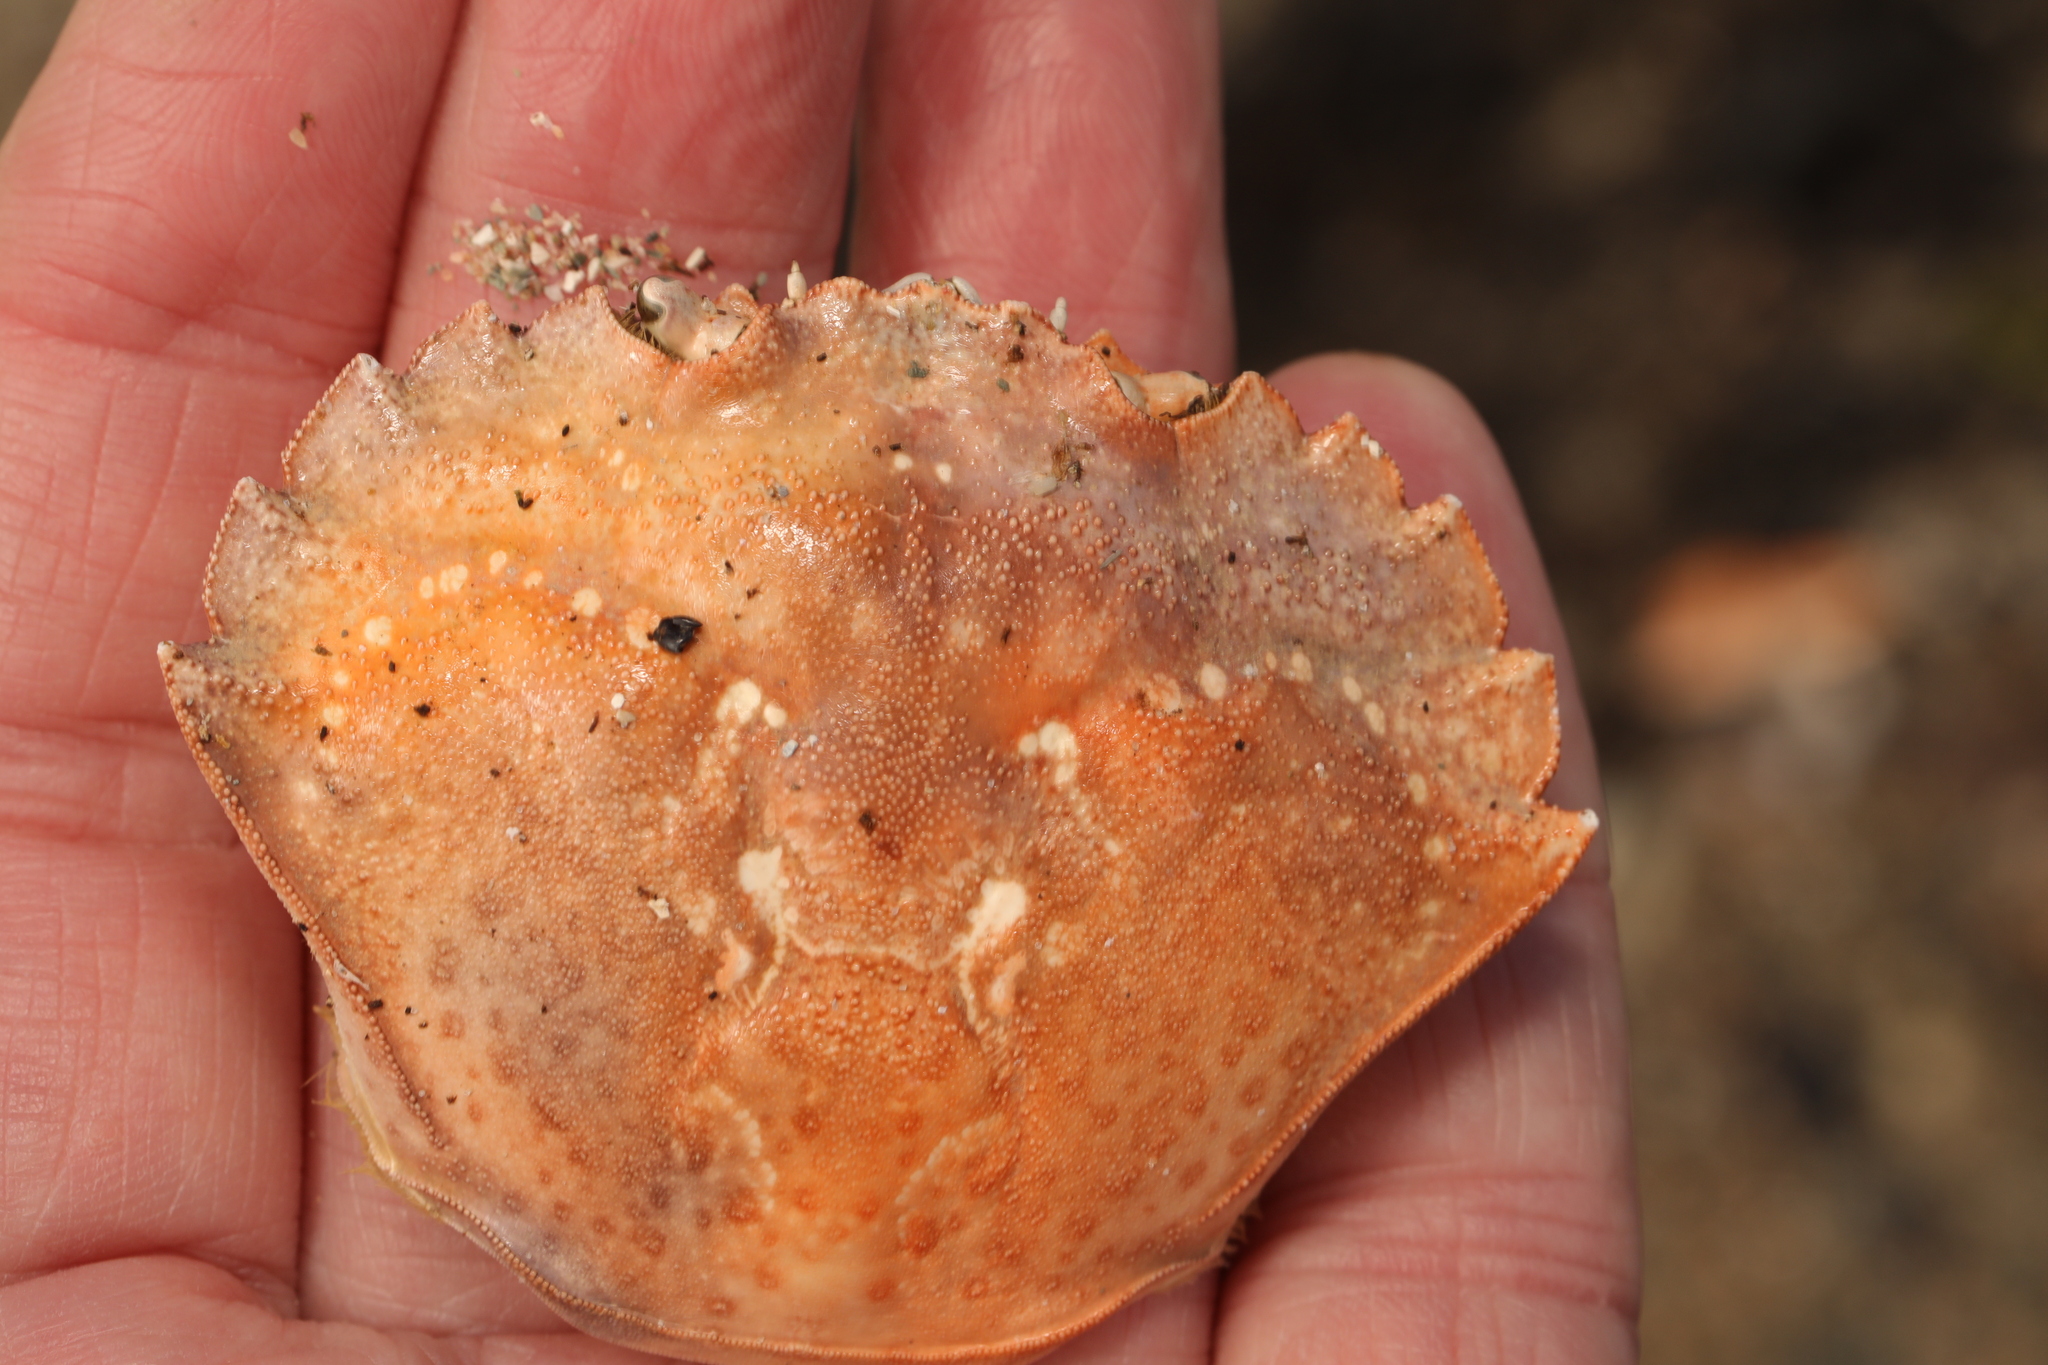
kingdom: Animalia
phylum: Arthropoda
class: Malacostraca
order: Decapoda
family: Carcinidae
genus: Carcinus
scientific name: Carcinus maenas
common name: European green crab
